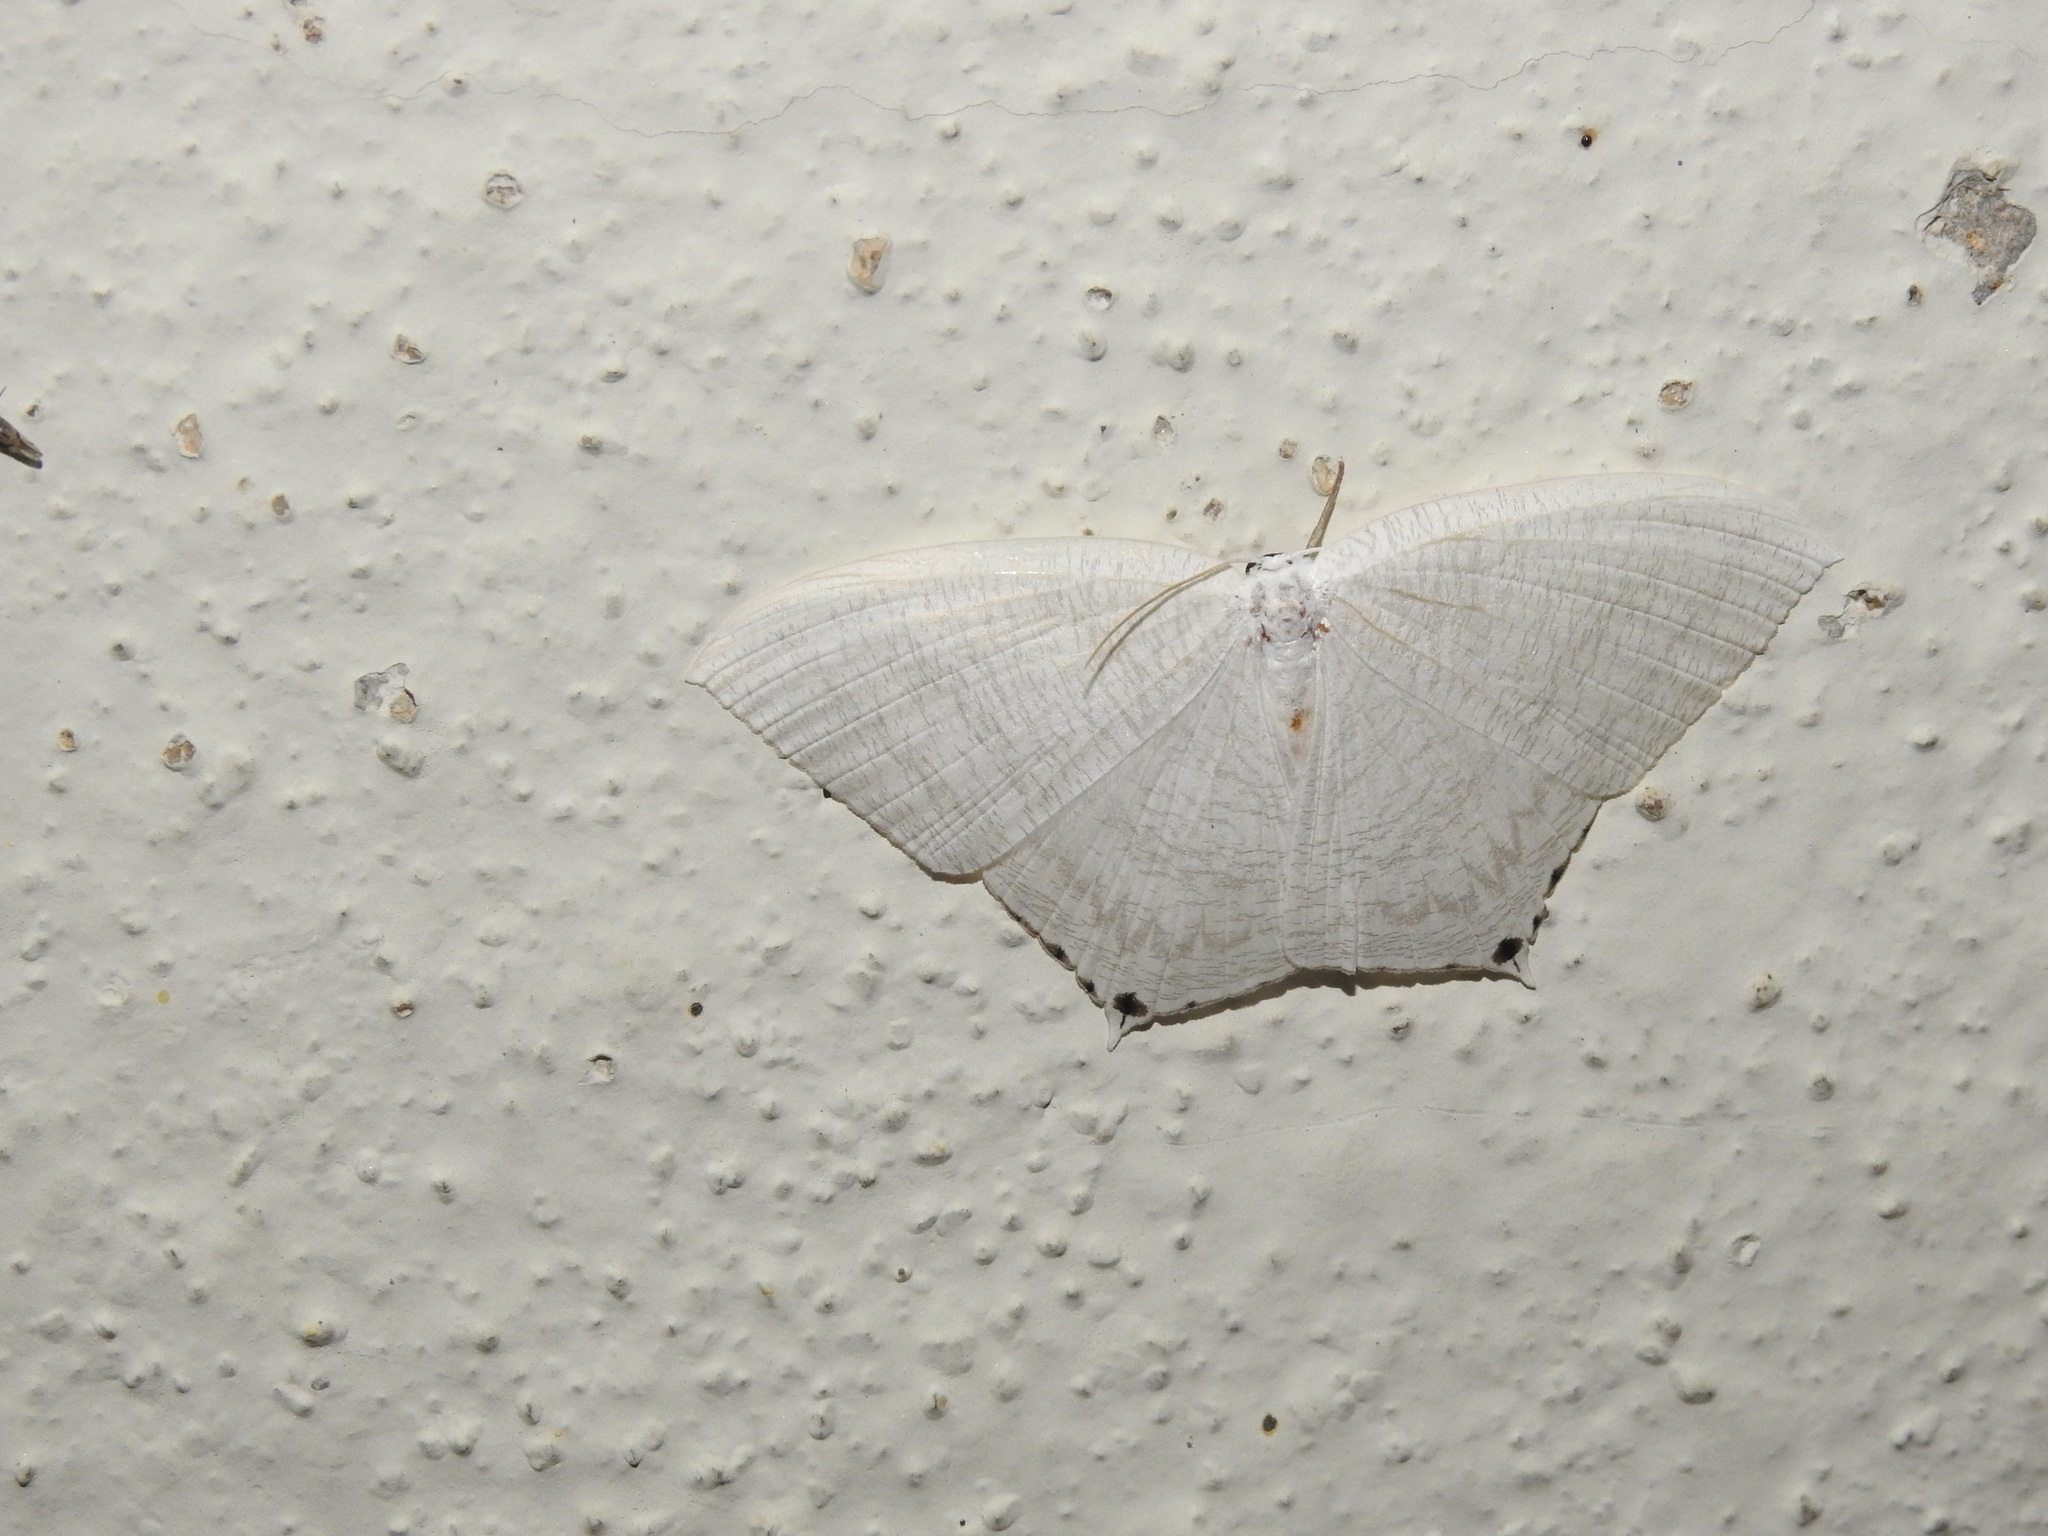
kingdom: Animalia
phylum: Arthropoda
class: Insecta
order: Lepidoptera
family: Uraniidae
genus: Micronia
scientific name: Micronia aculeata
